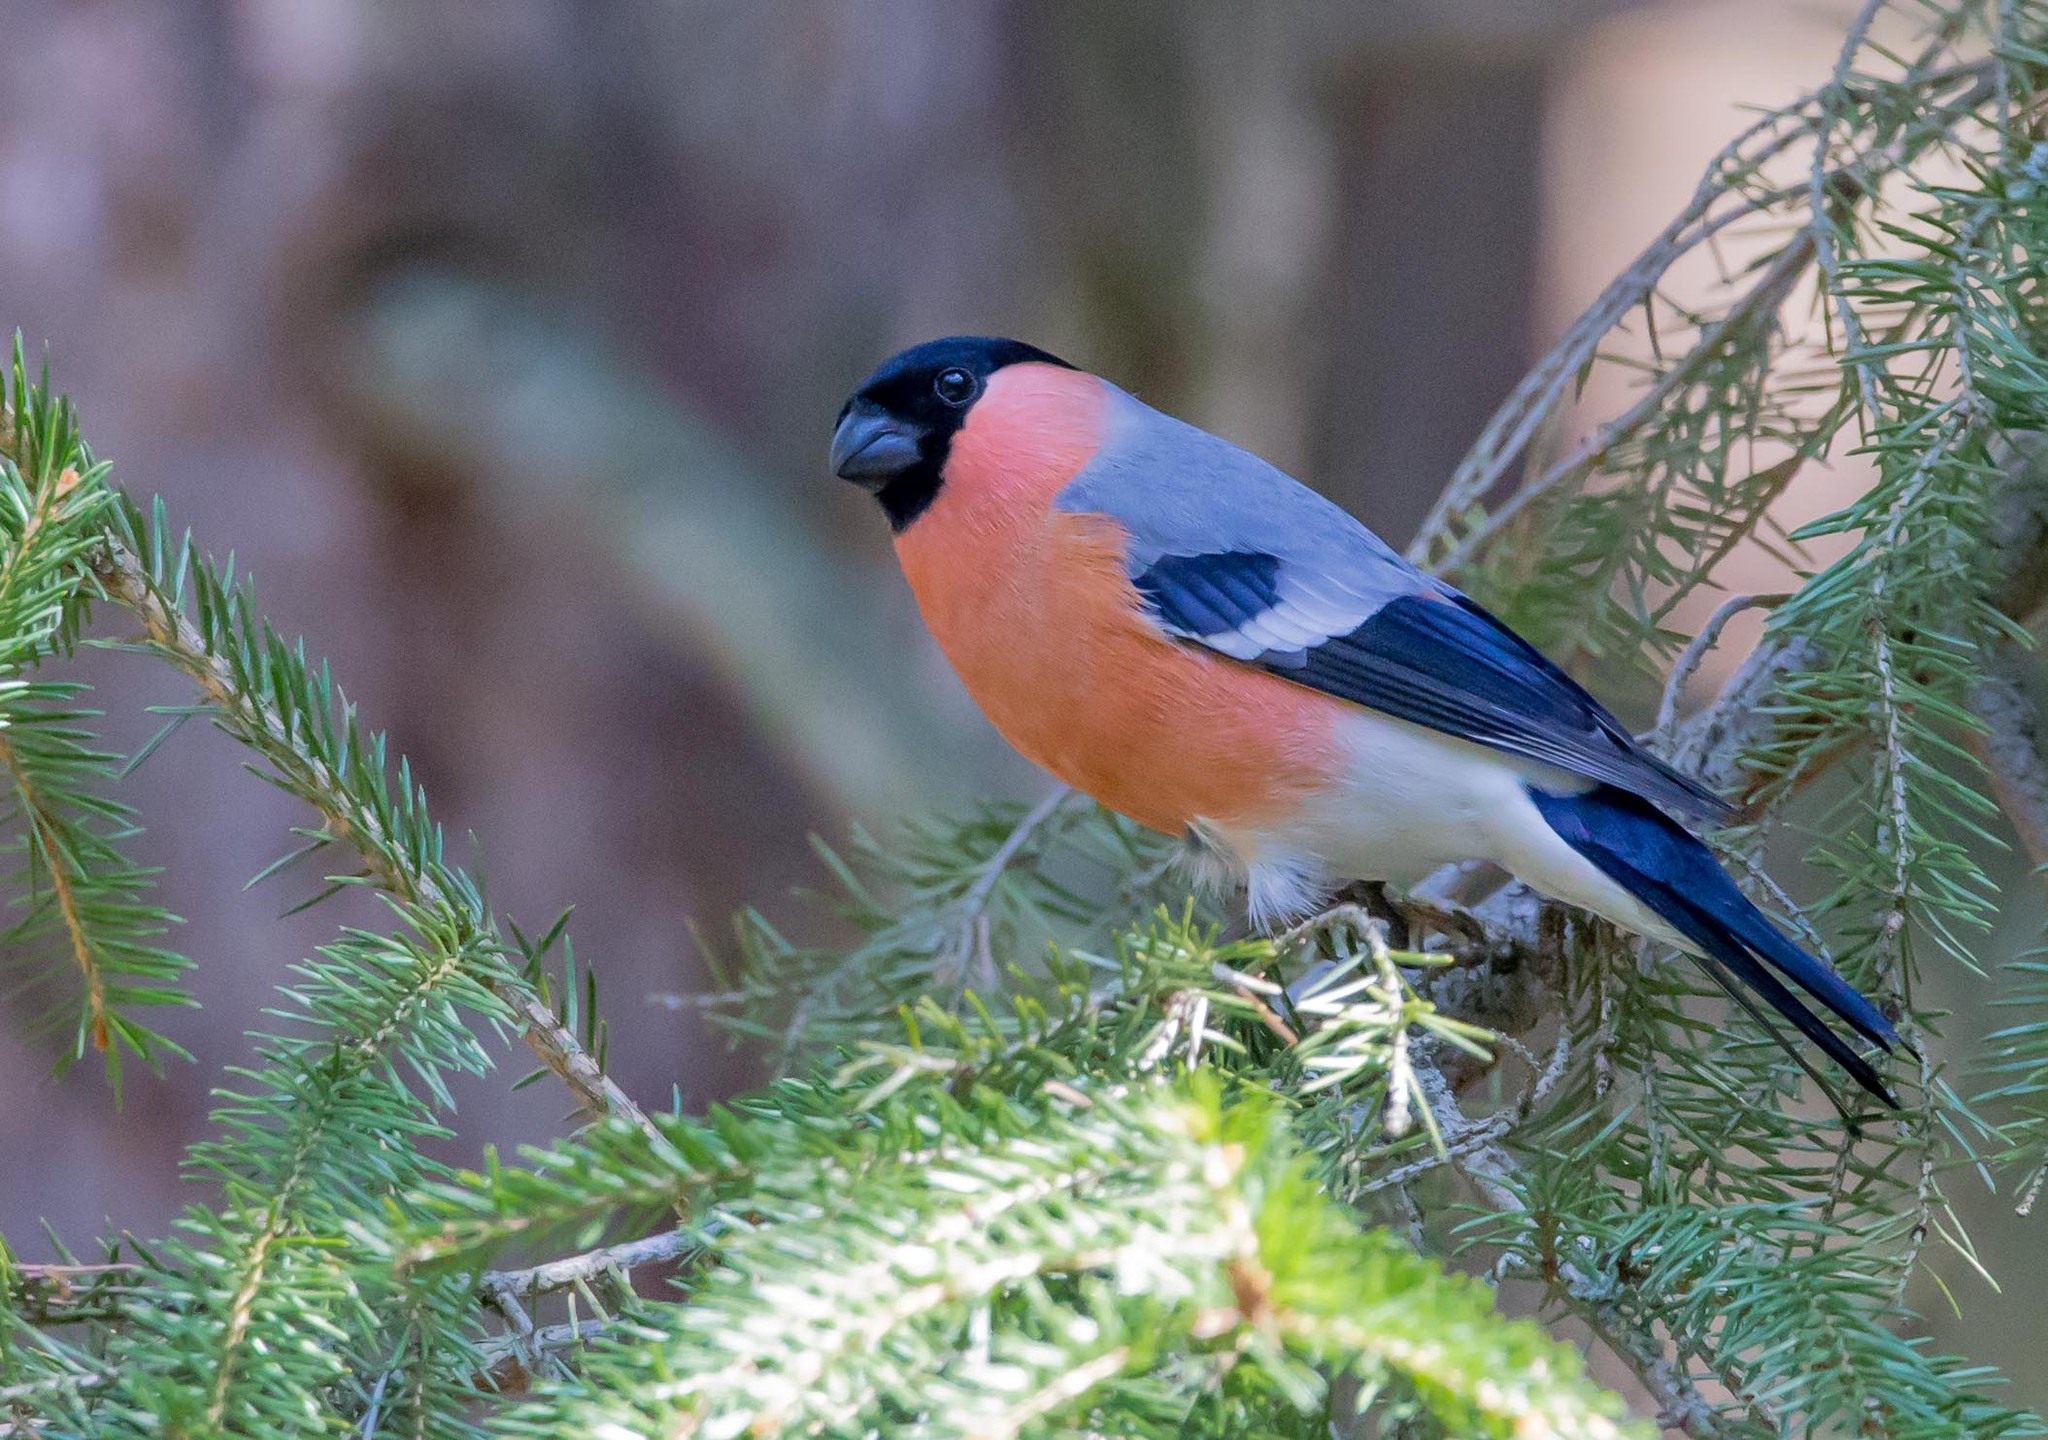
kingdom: Animalia
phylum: Chordata
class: Aves
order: Passeriformes
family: Fringillidae
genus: Pyrrhula
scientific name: Pyrrhula pyrrhula
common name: Eurasian bullfinch
